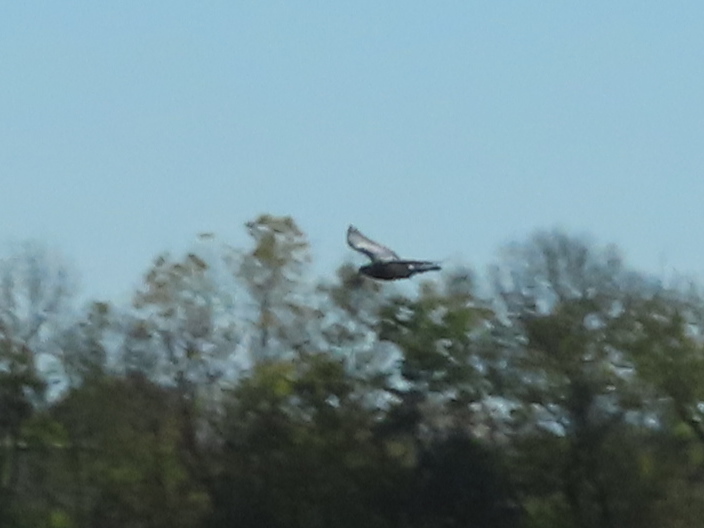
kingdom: Animalia
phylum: Chordata
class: Aves
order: Columbiformes
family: Columbidae
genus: Columba
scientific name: Columba livia
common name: Rock pigeon
